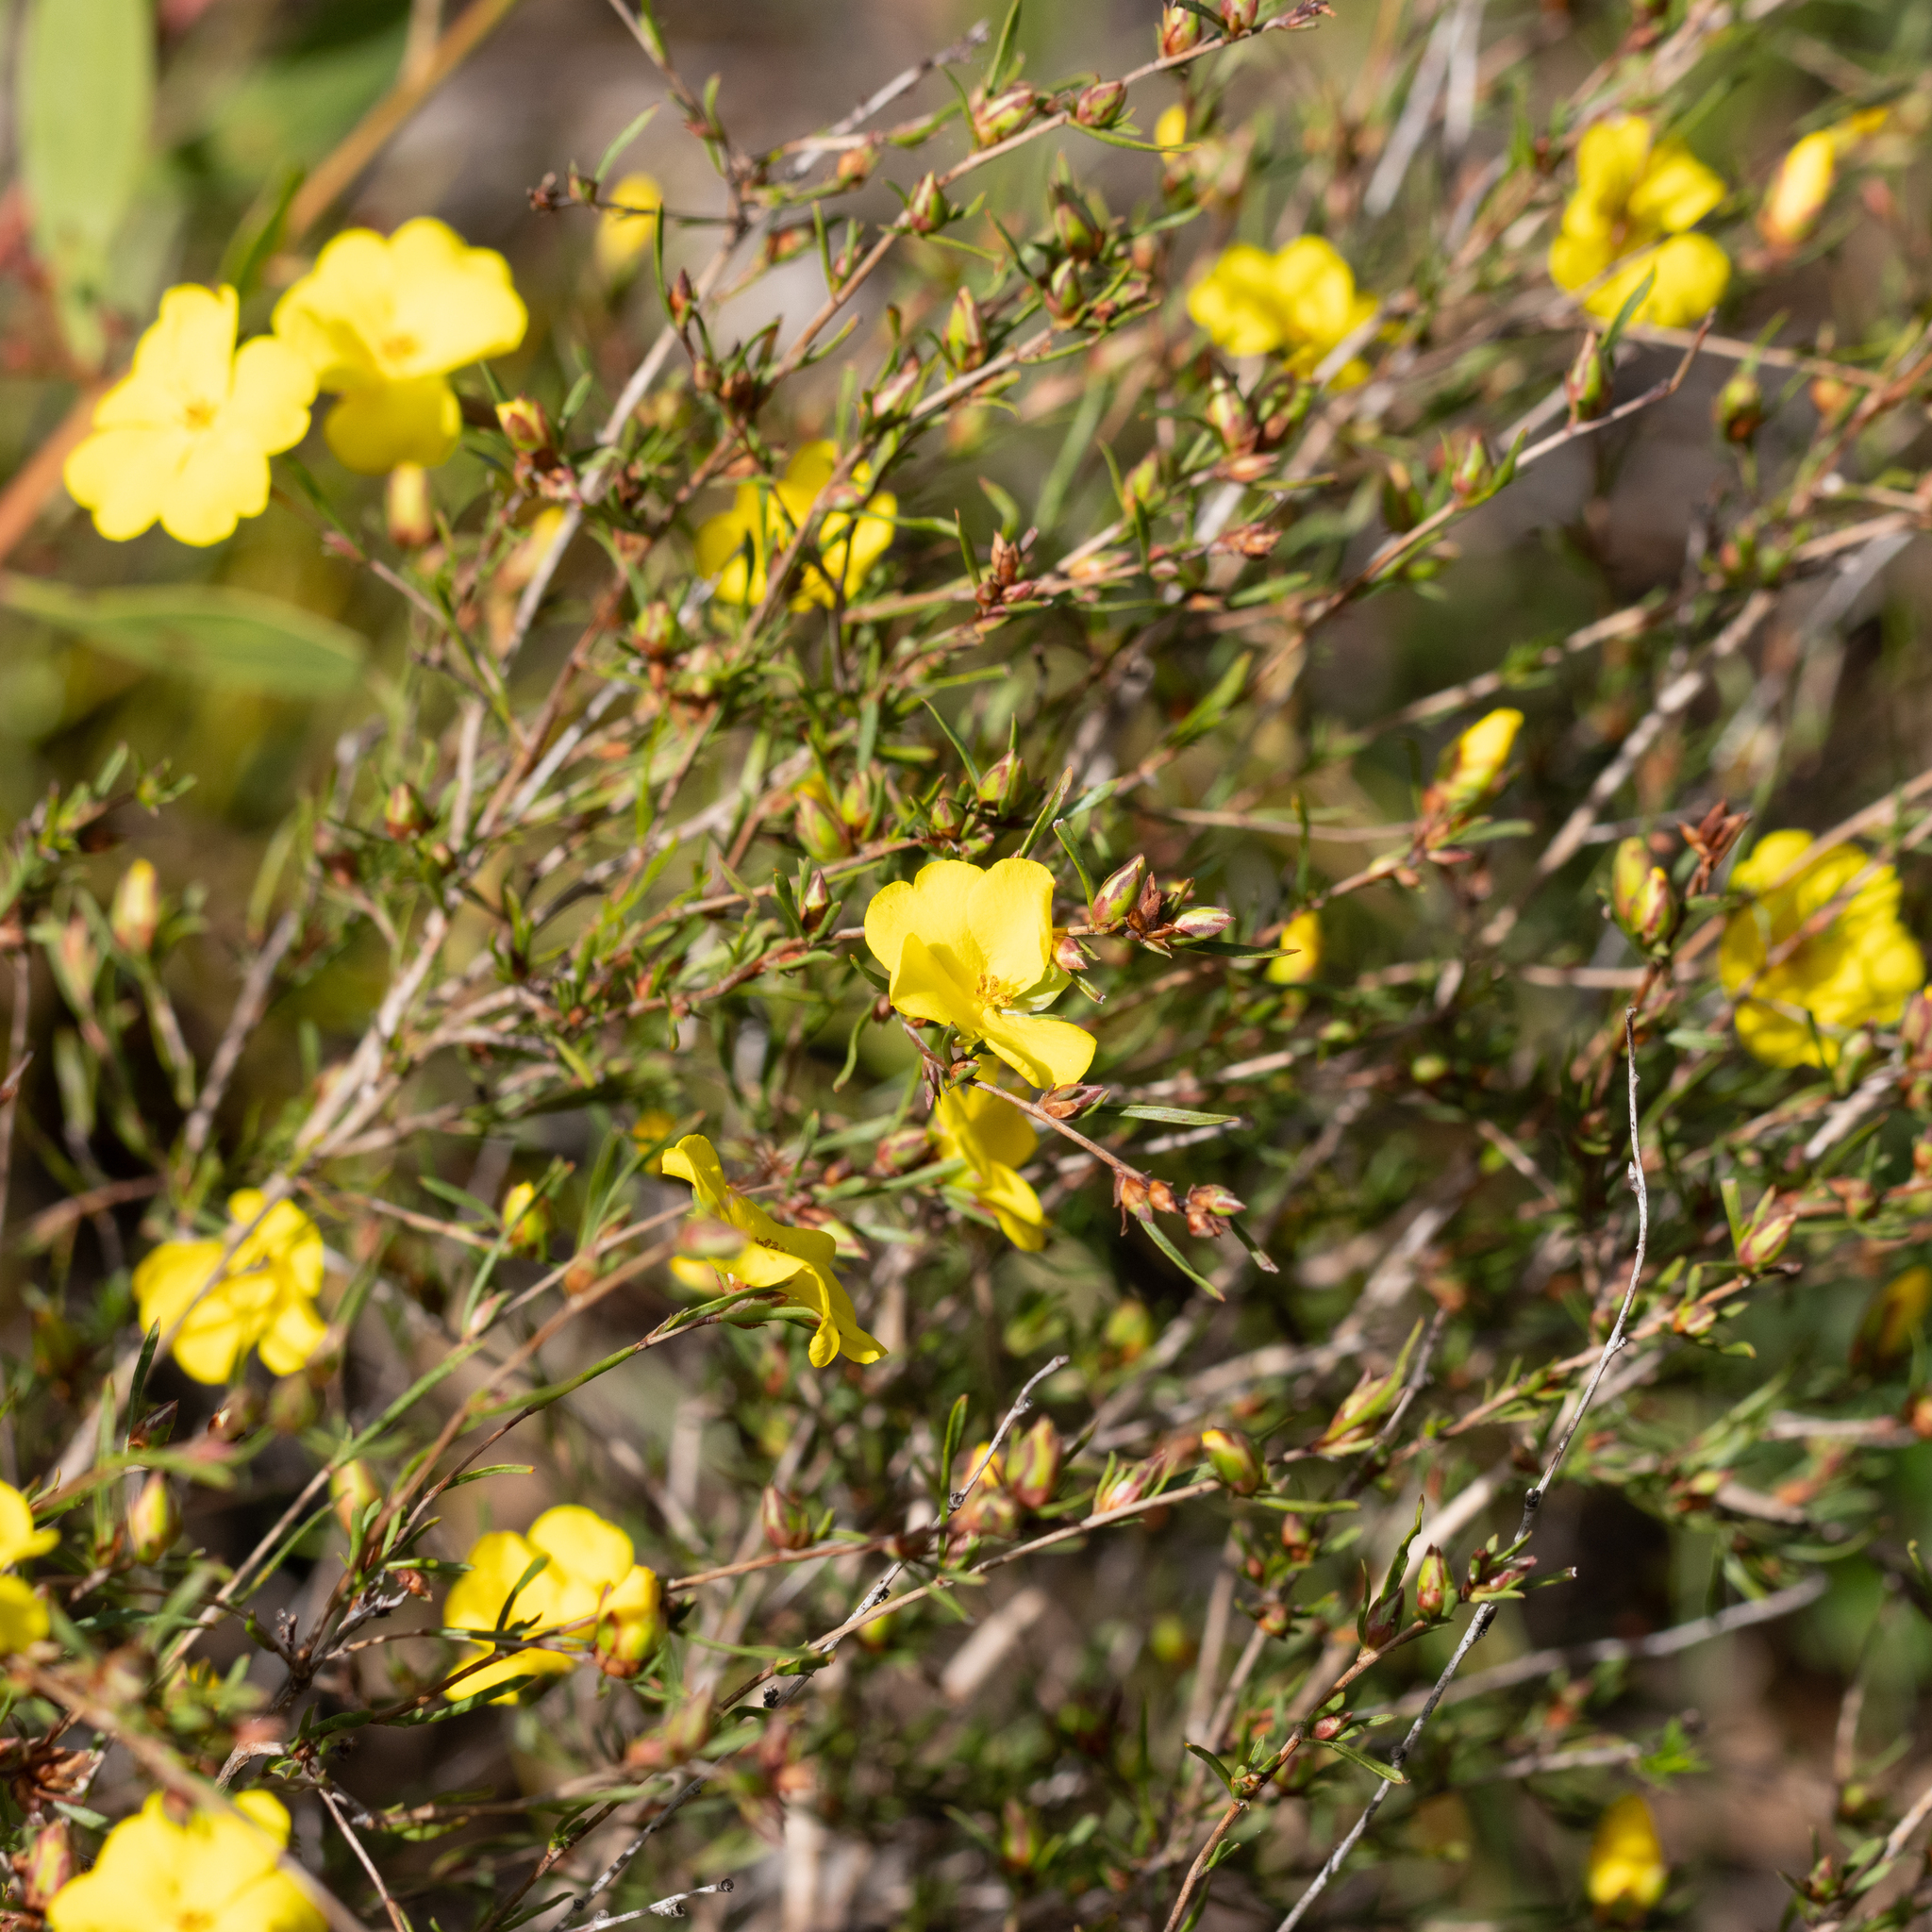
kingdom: Plantae
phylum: Tracheophyta
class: Magnoliopsida
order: Dilleniales
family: Dilleniaceae
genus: Hibbertia
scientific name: Hibbertia virgata
